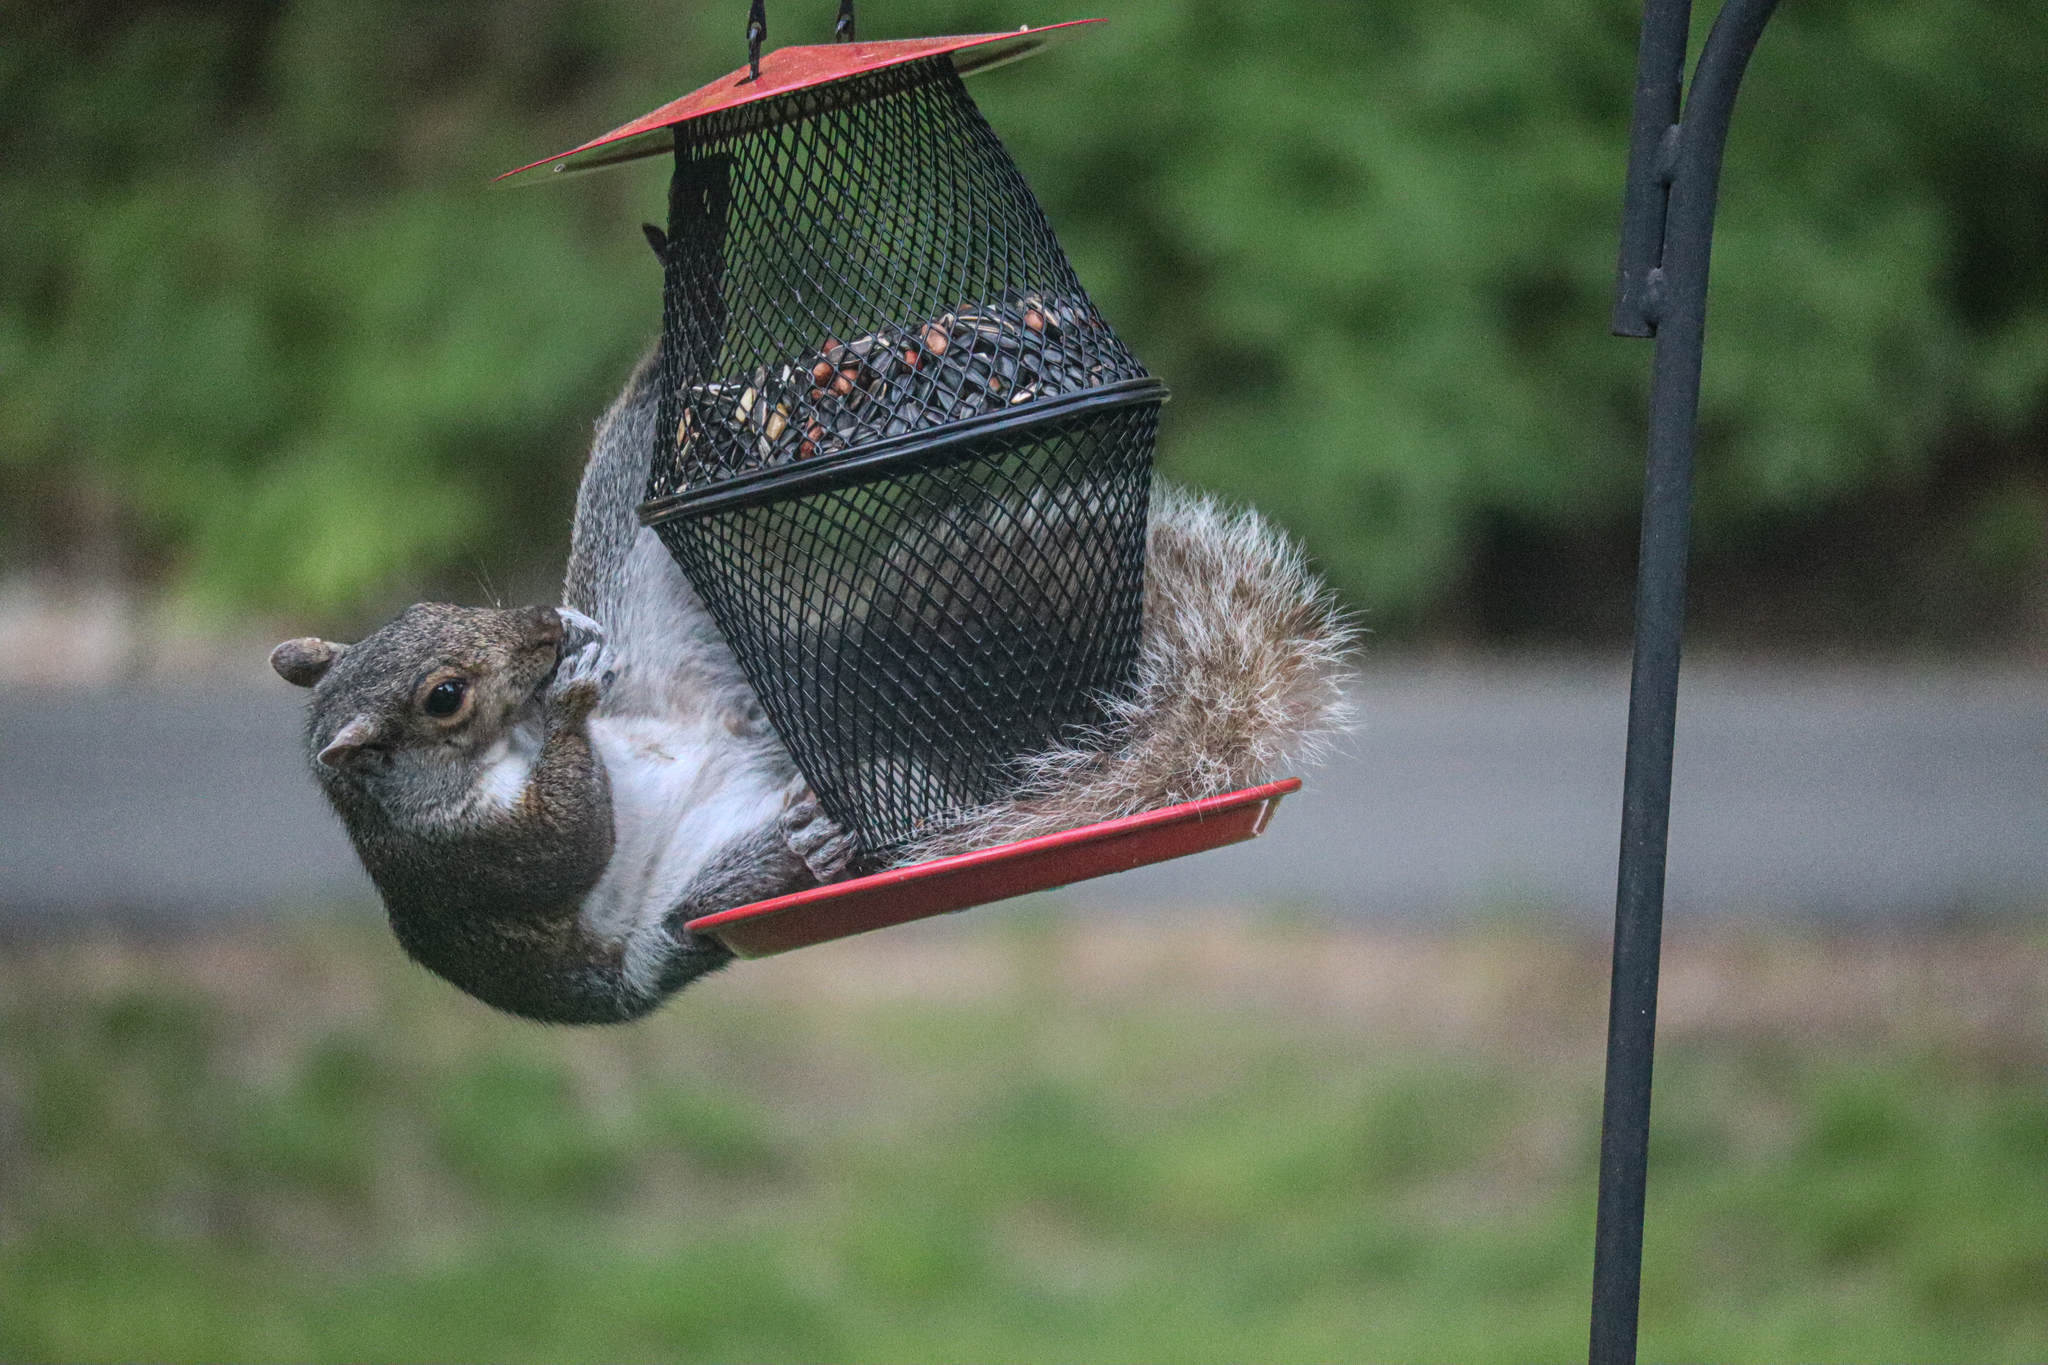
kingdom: Animalia
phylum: Chordata
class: Mammalia
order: Rodentia
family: Sciuridae
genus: Sciurus
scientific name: Sciurus carolinensis
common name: Eastern gray squirrel
